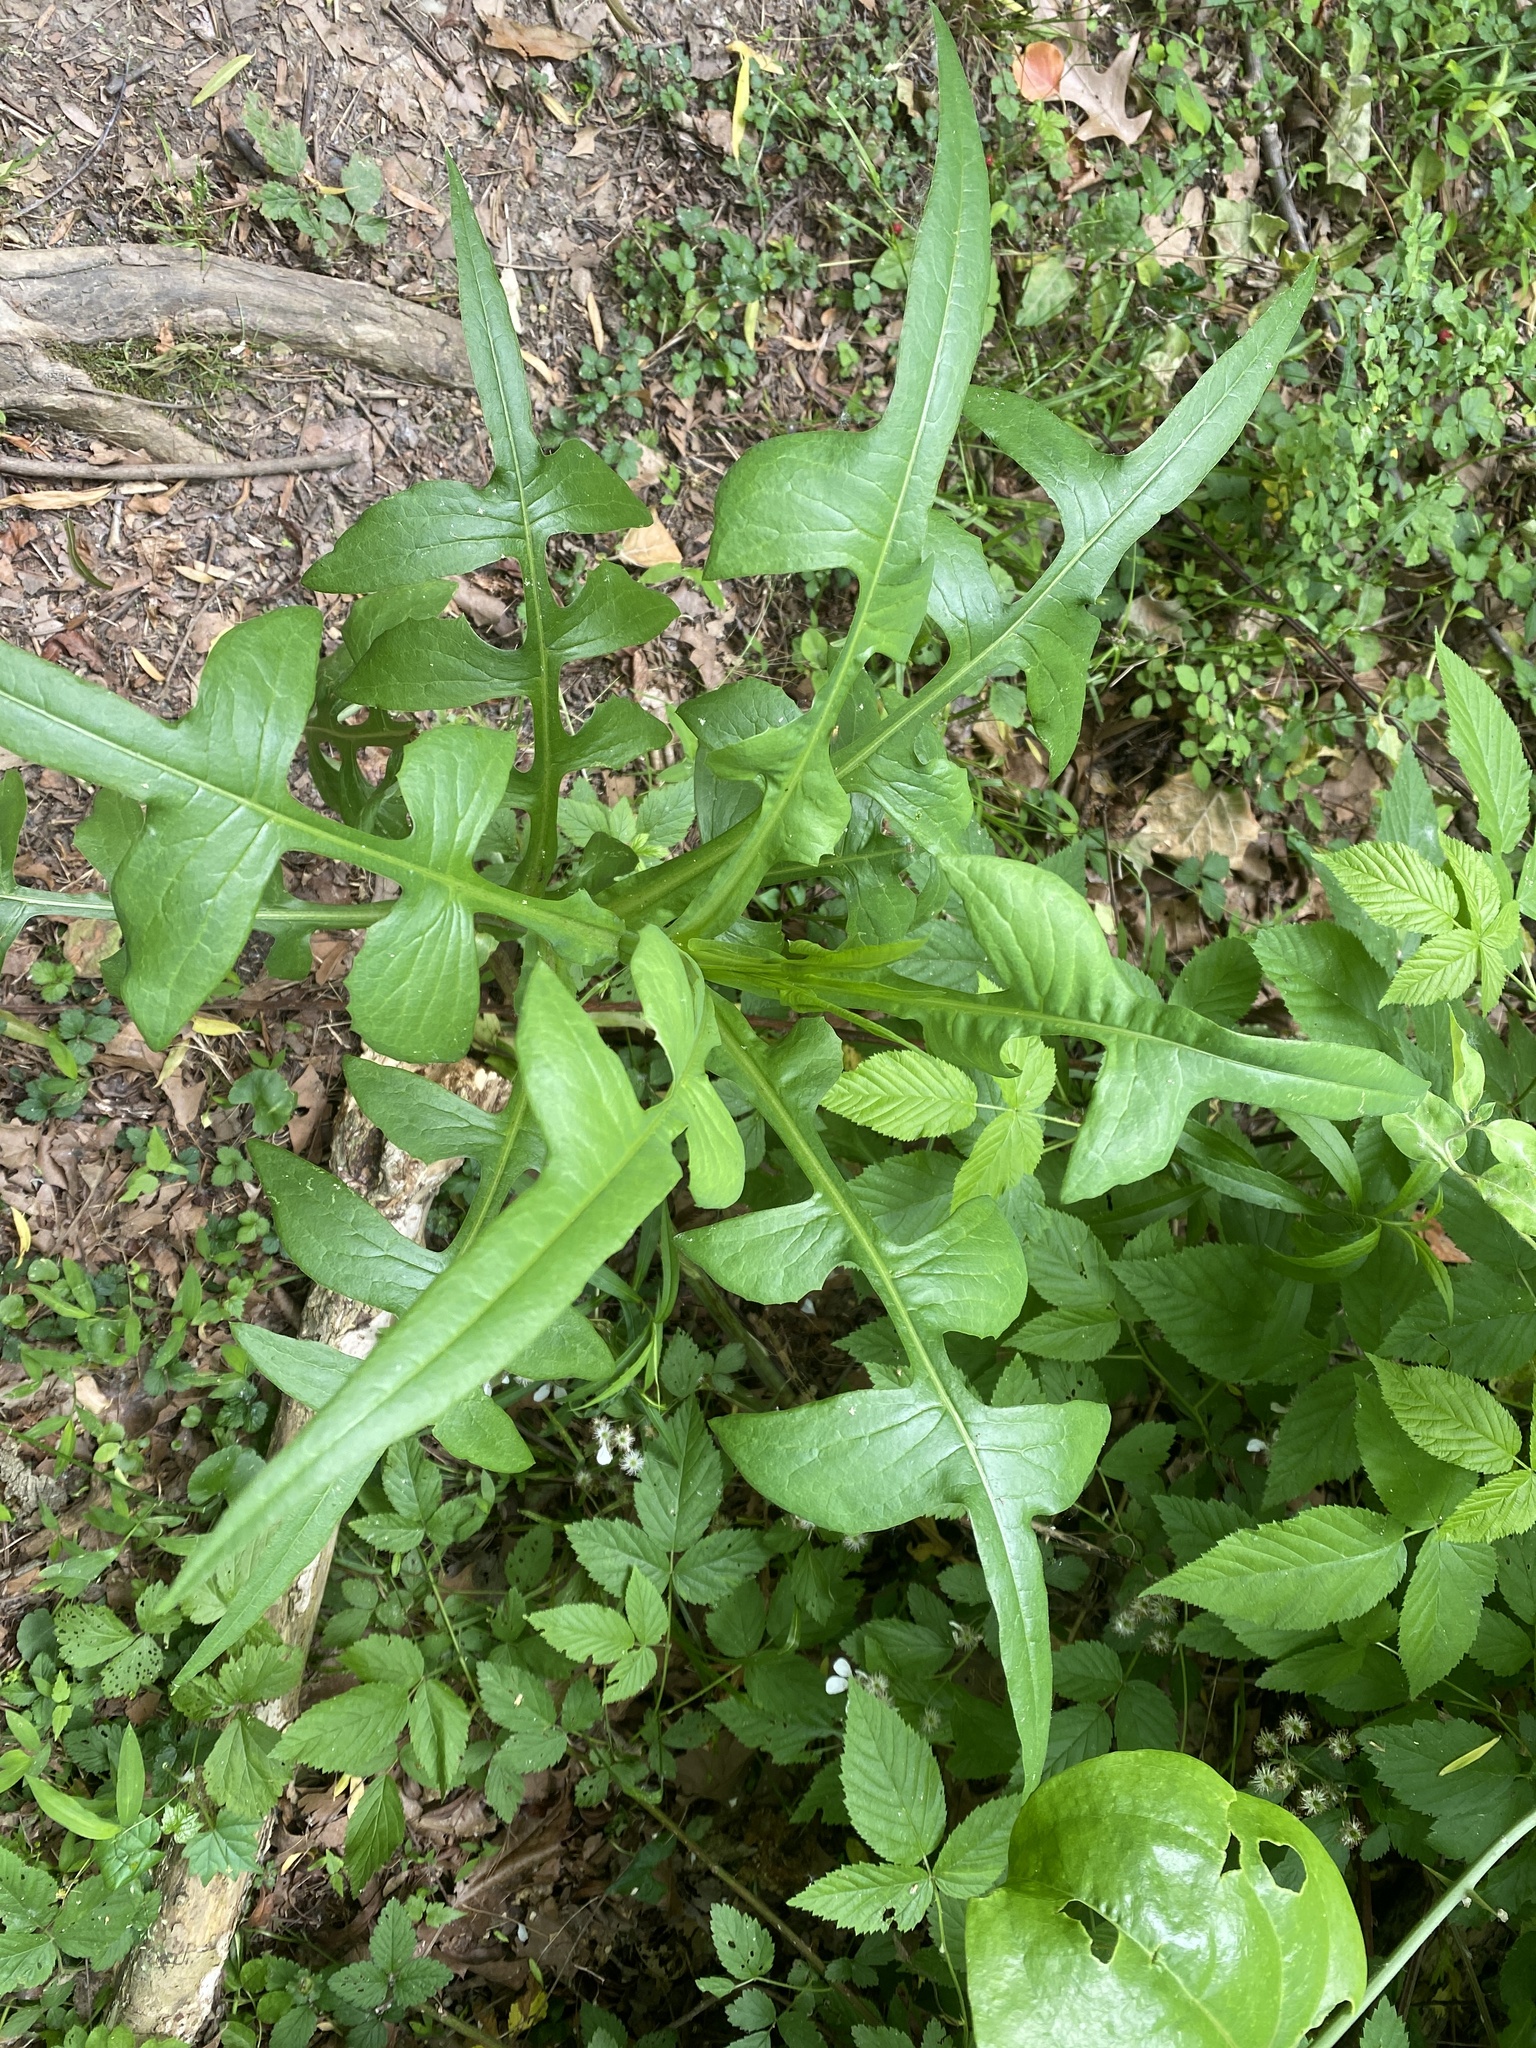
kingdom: Plantae
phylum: Tracheophyta
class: Magnoliopsida
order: Asterales
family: Asteraceae
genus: Lactuca
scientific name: Lactuca canadensis
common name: Canada lettuce
